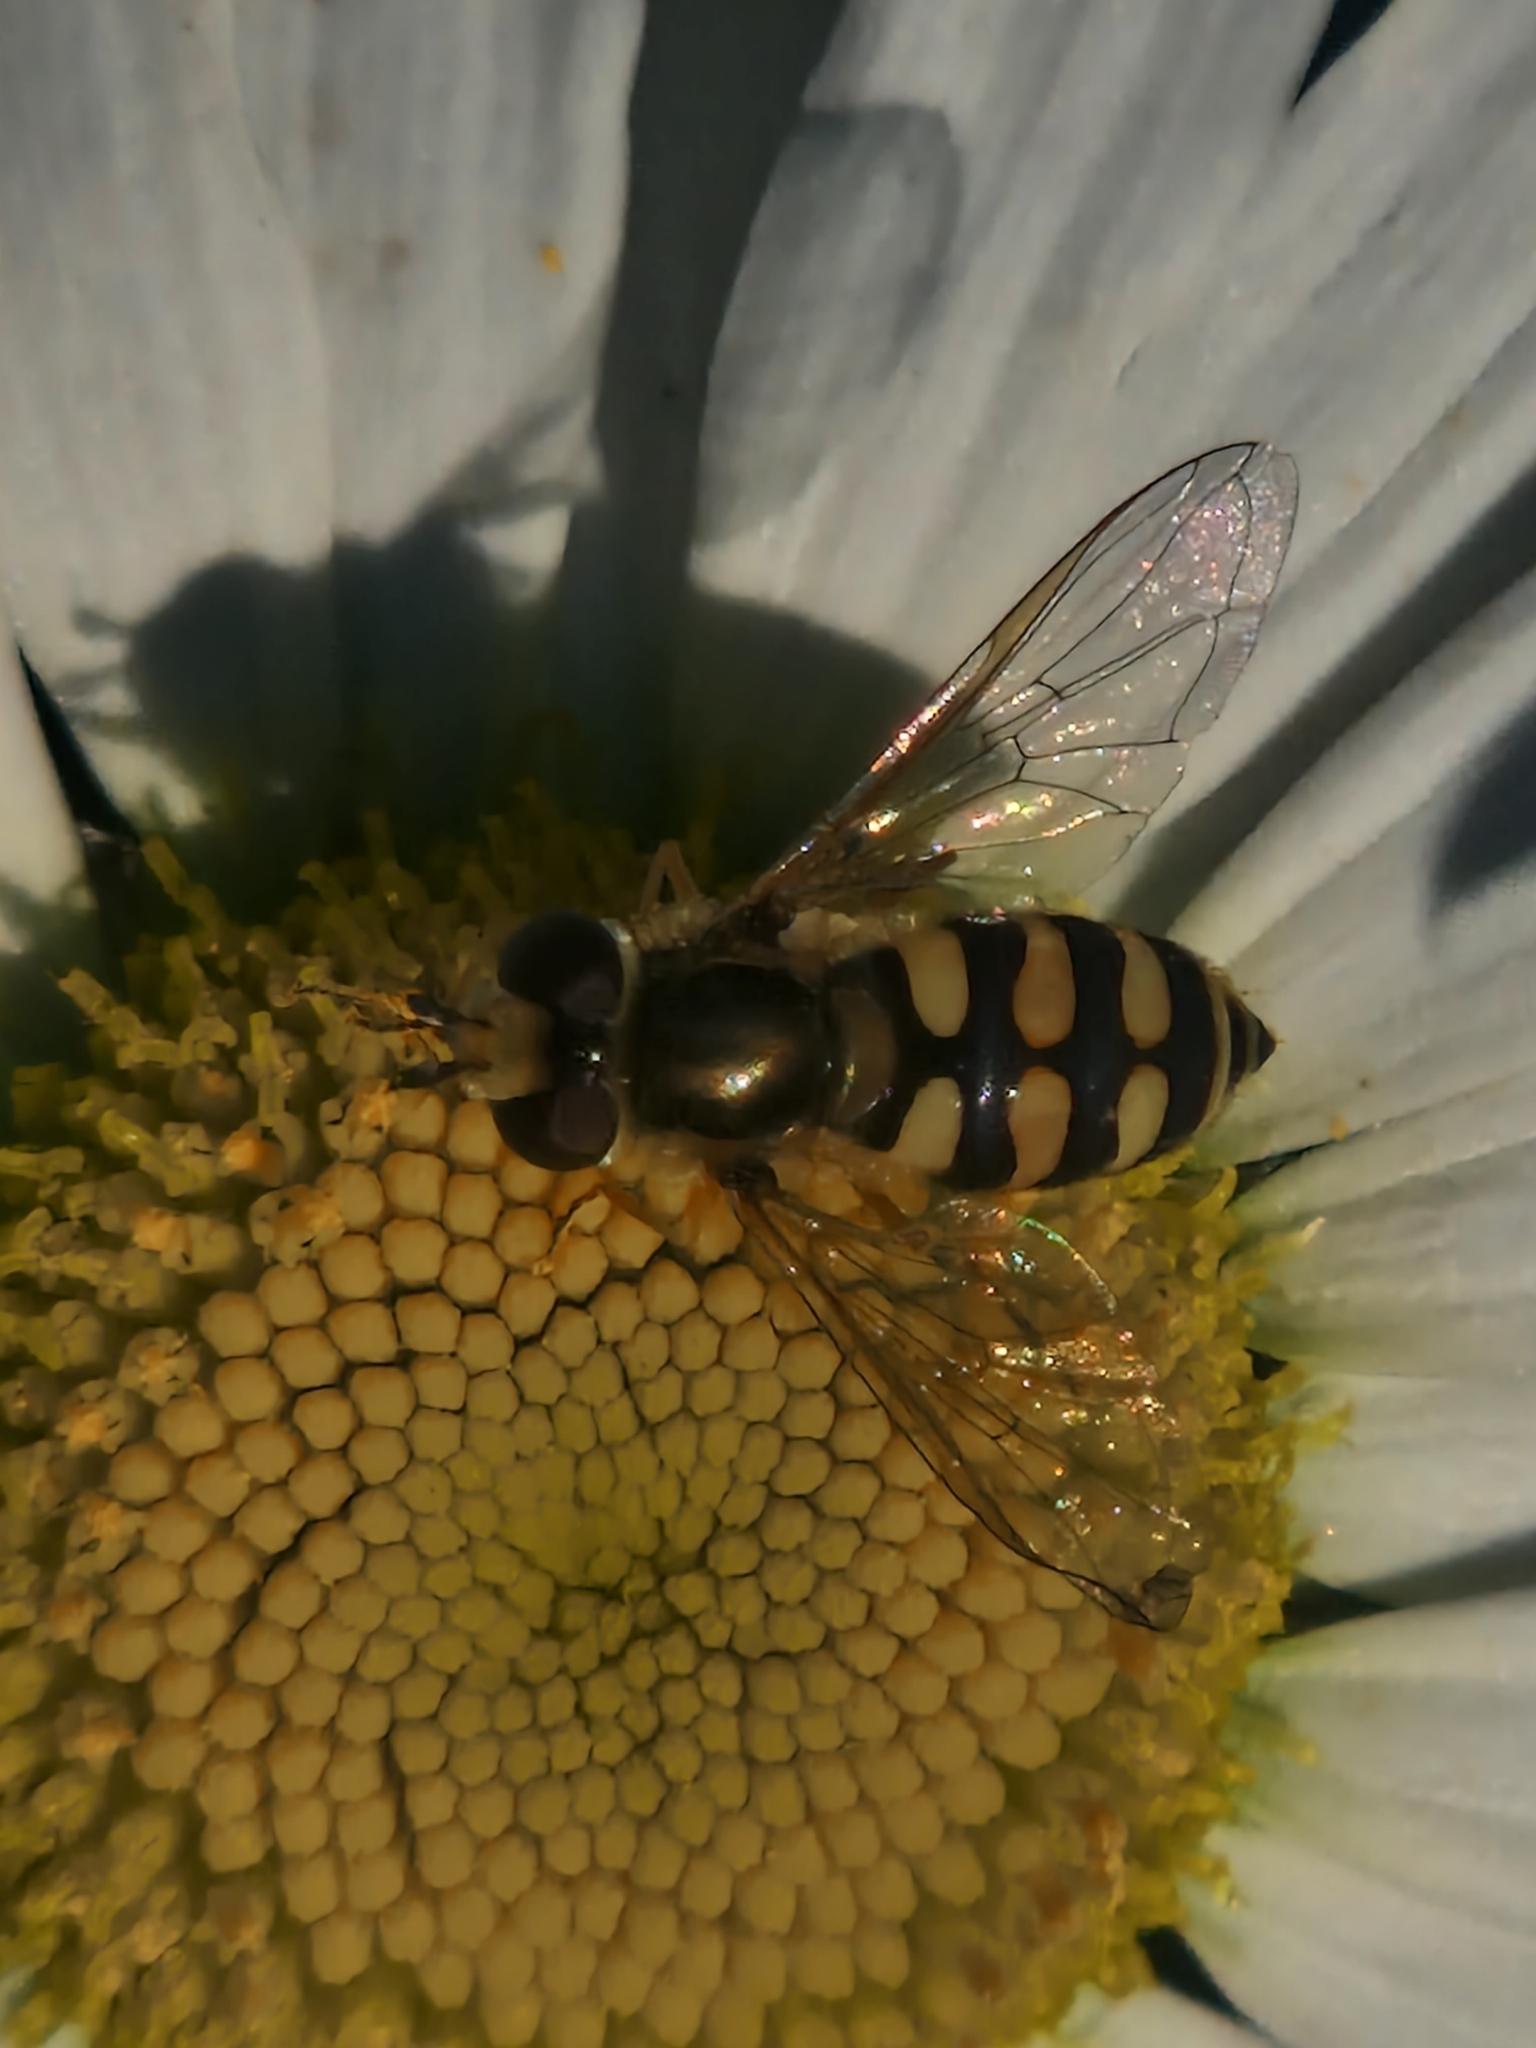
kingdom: Animalia
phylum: Arthropoda
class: Insecta
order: Diptera
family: Syrphidae
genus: Eupeodes
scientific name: Eupeodes corollae
